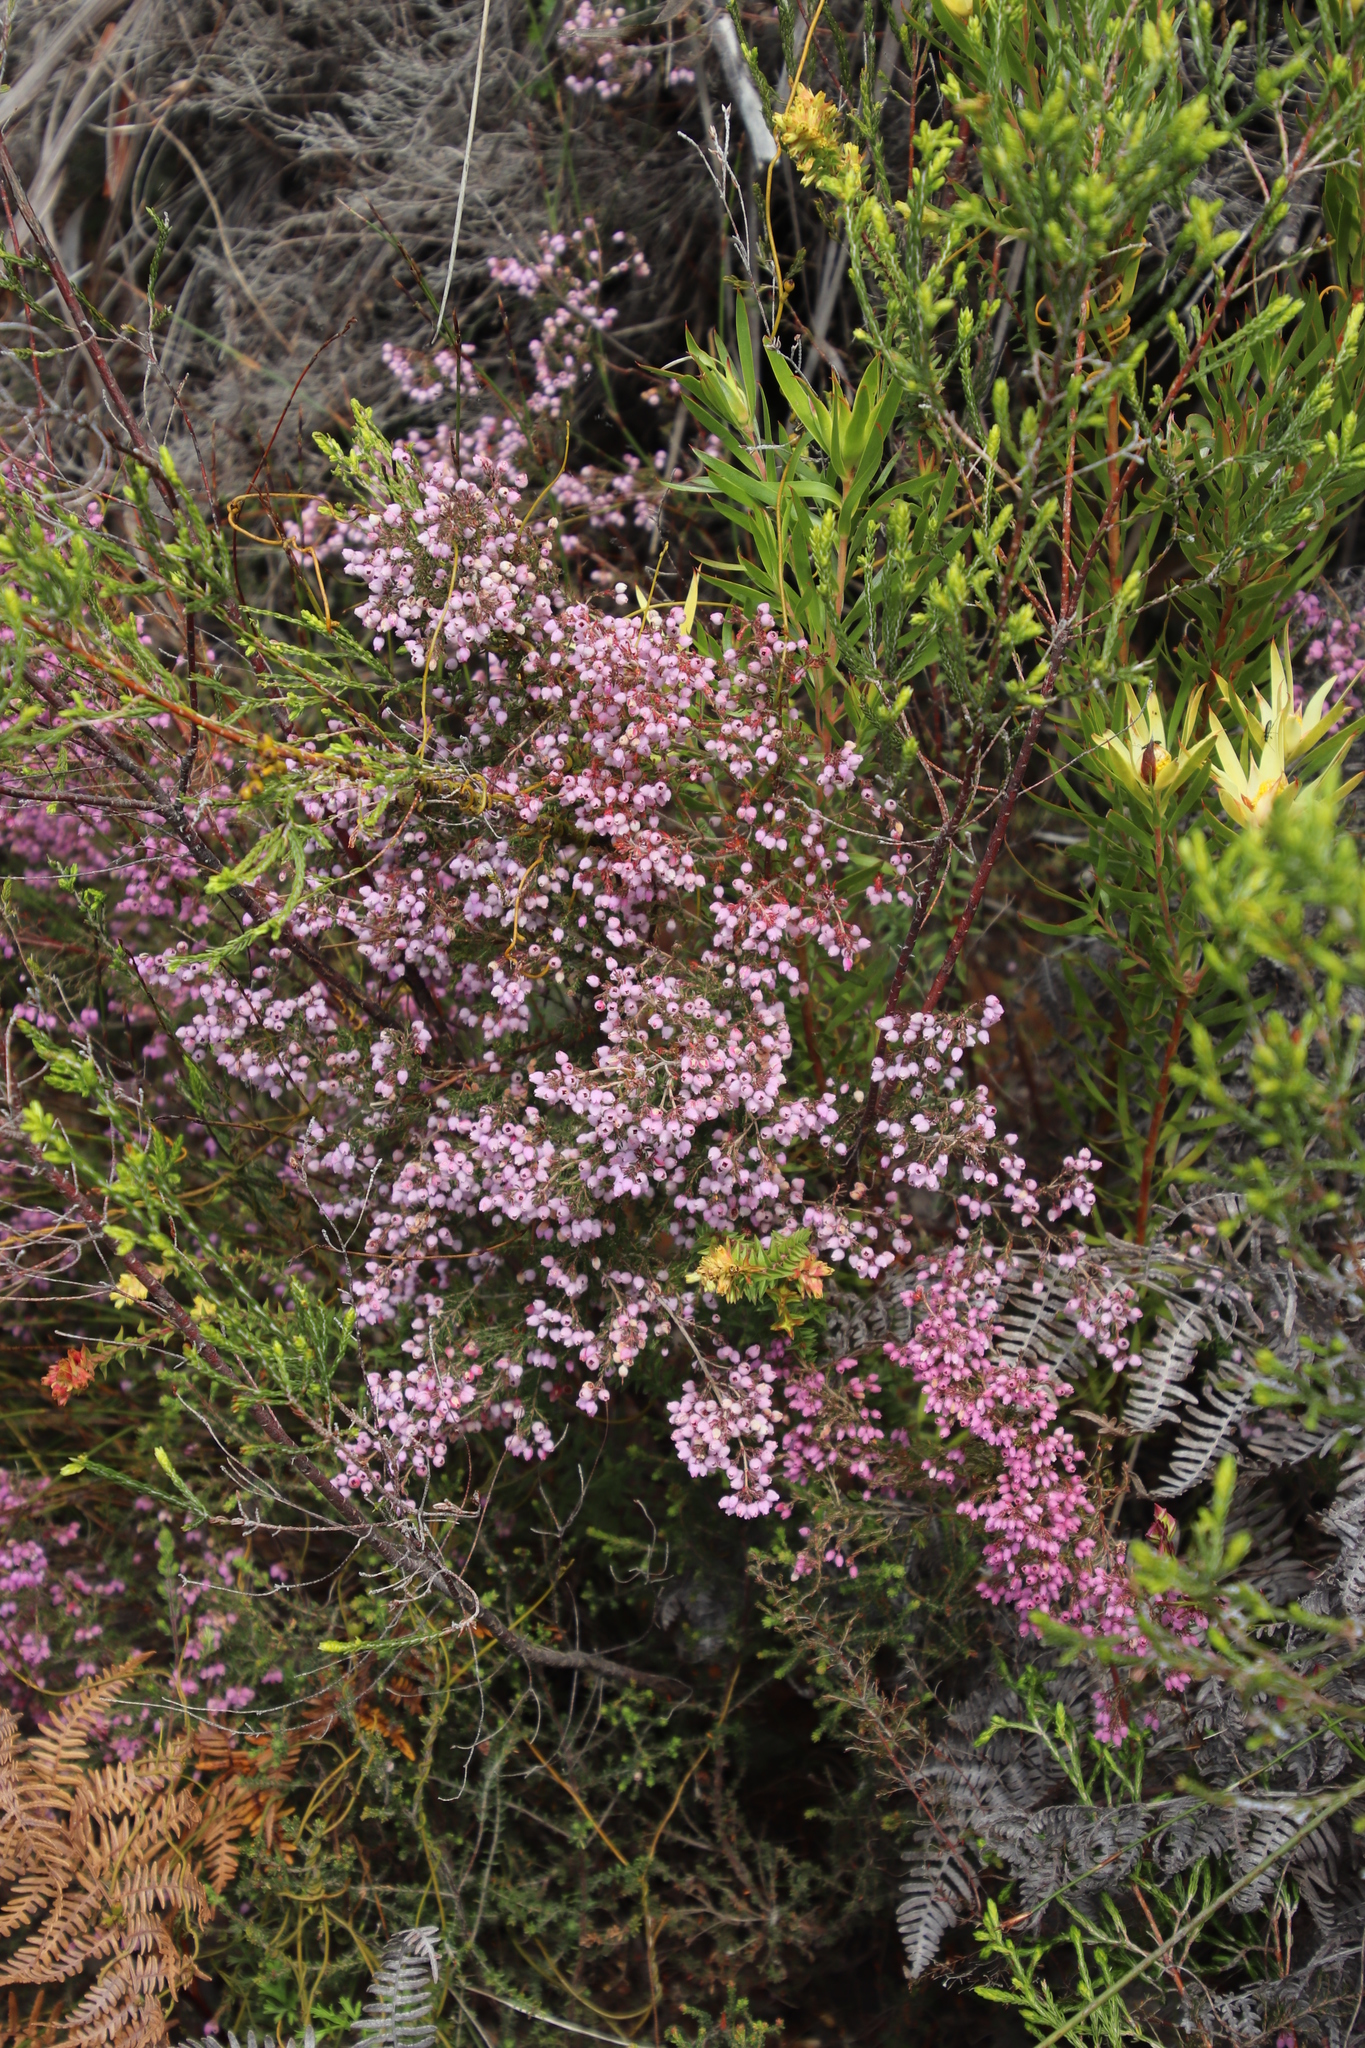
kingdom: Plantae
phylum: Tracheophyta
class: Magnoliopsida
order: Ericales
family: Ericaceae
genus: Erica
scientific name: Erica hirtiflora
